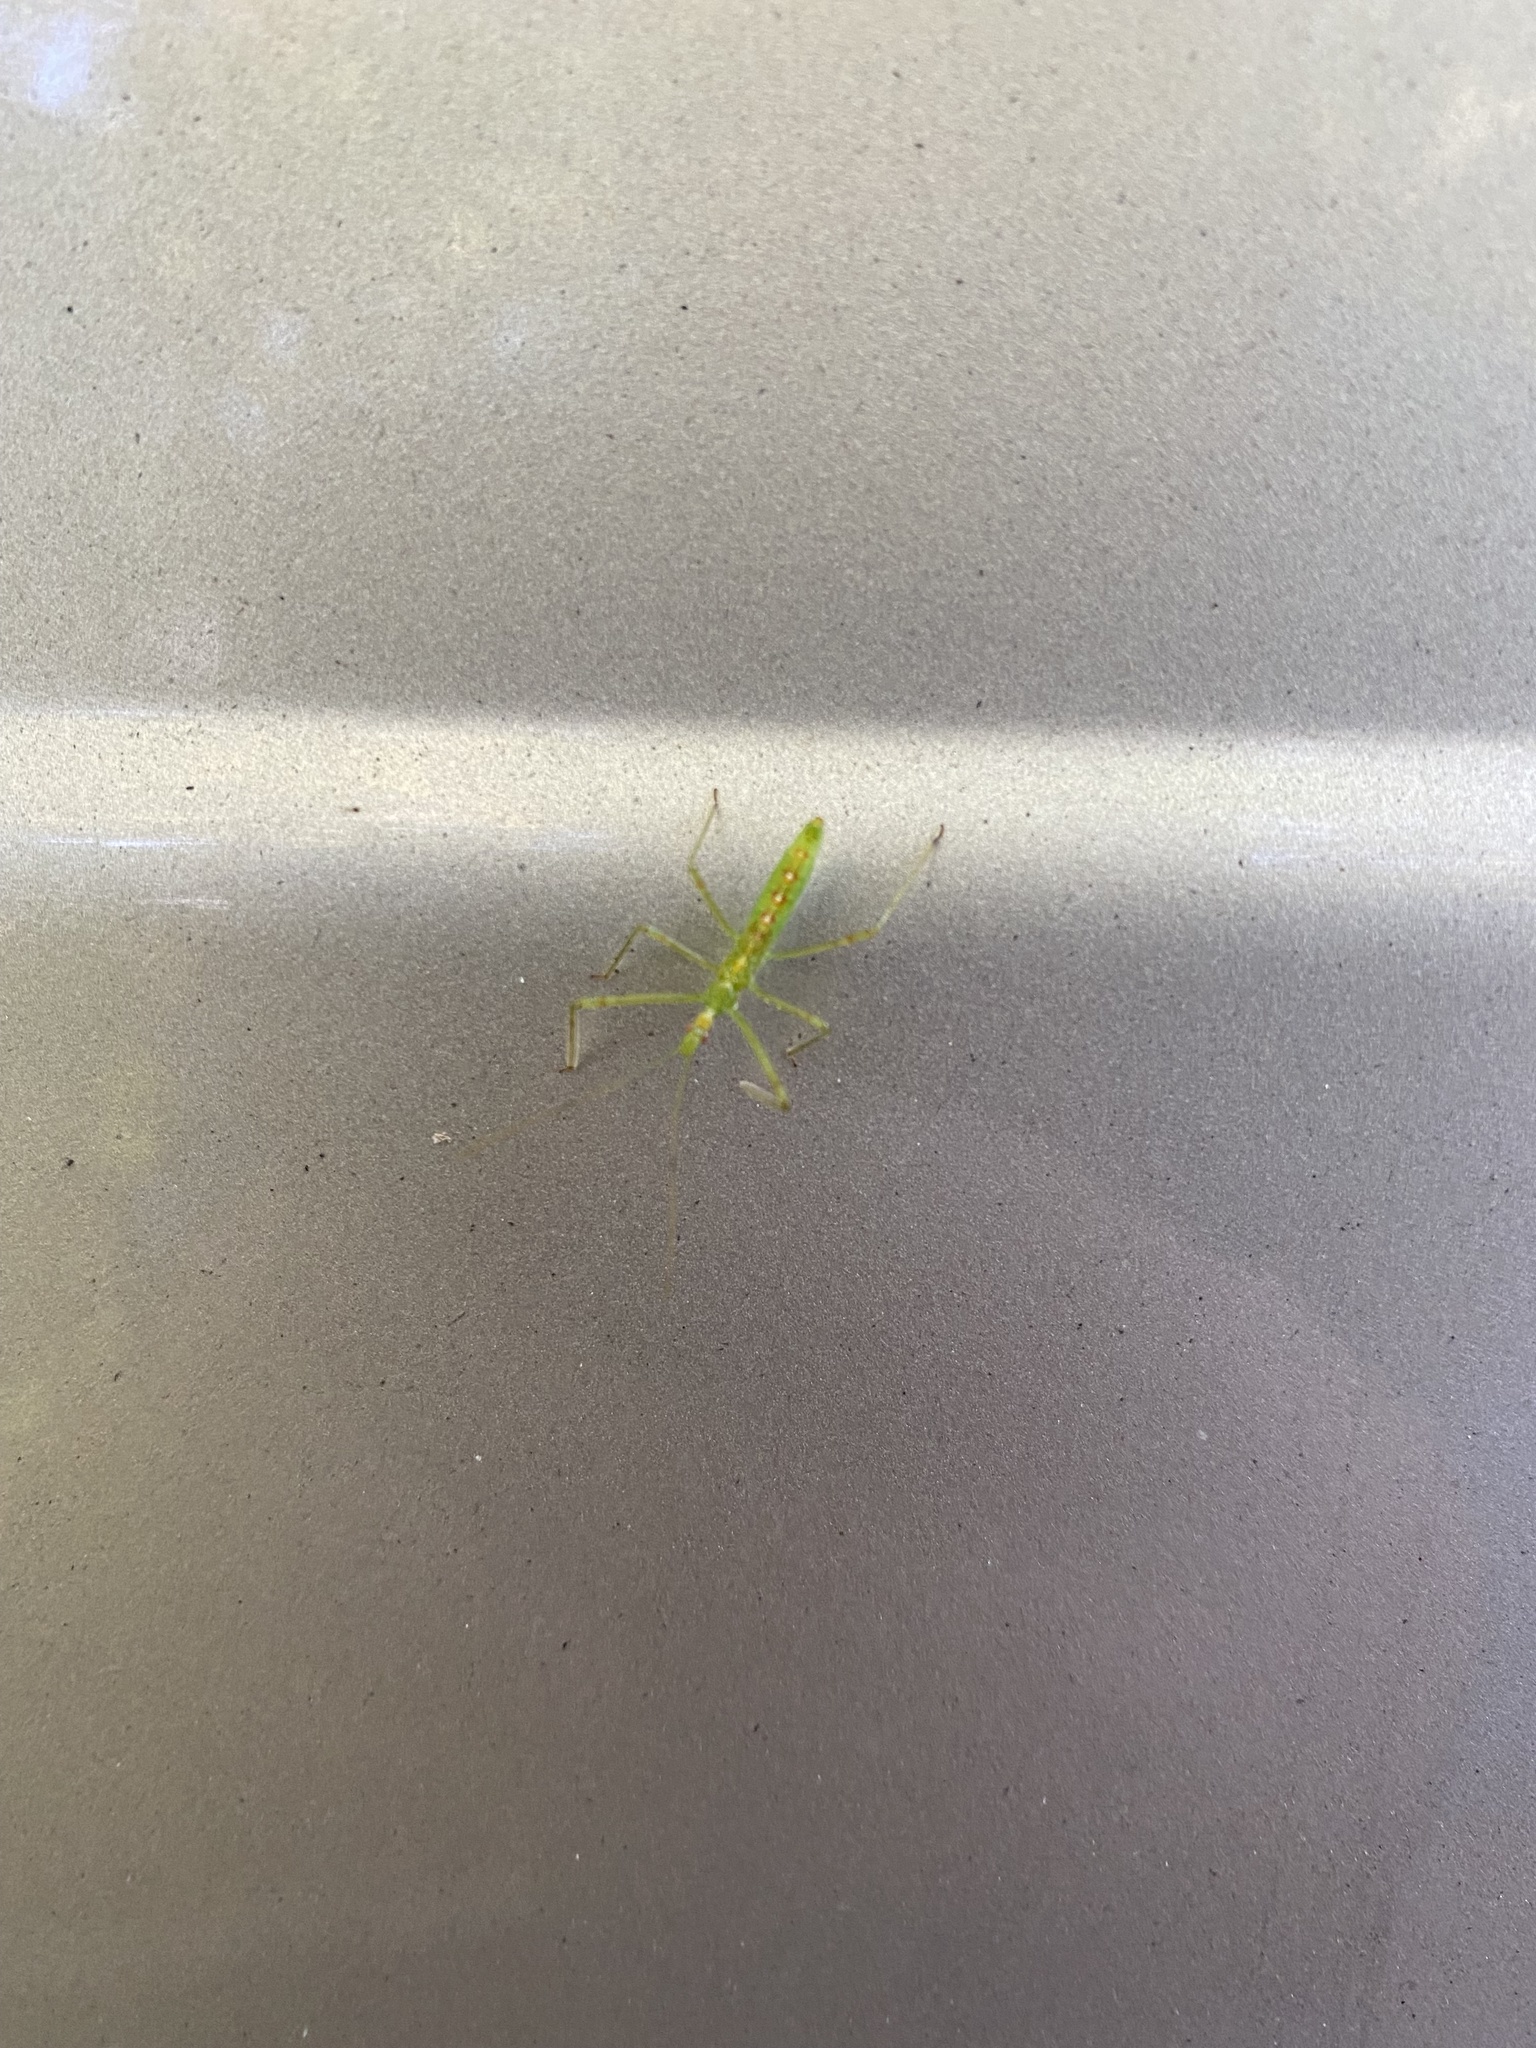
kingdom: Animalia
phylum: Arthropoda
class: Insecta
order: Hemiptera
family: Reduviidae
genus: Zelus
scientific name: Zelus luridus
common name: Pale green assassin bug
